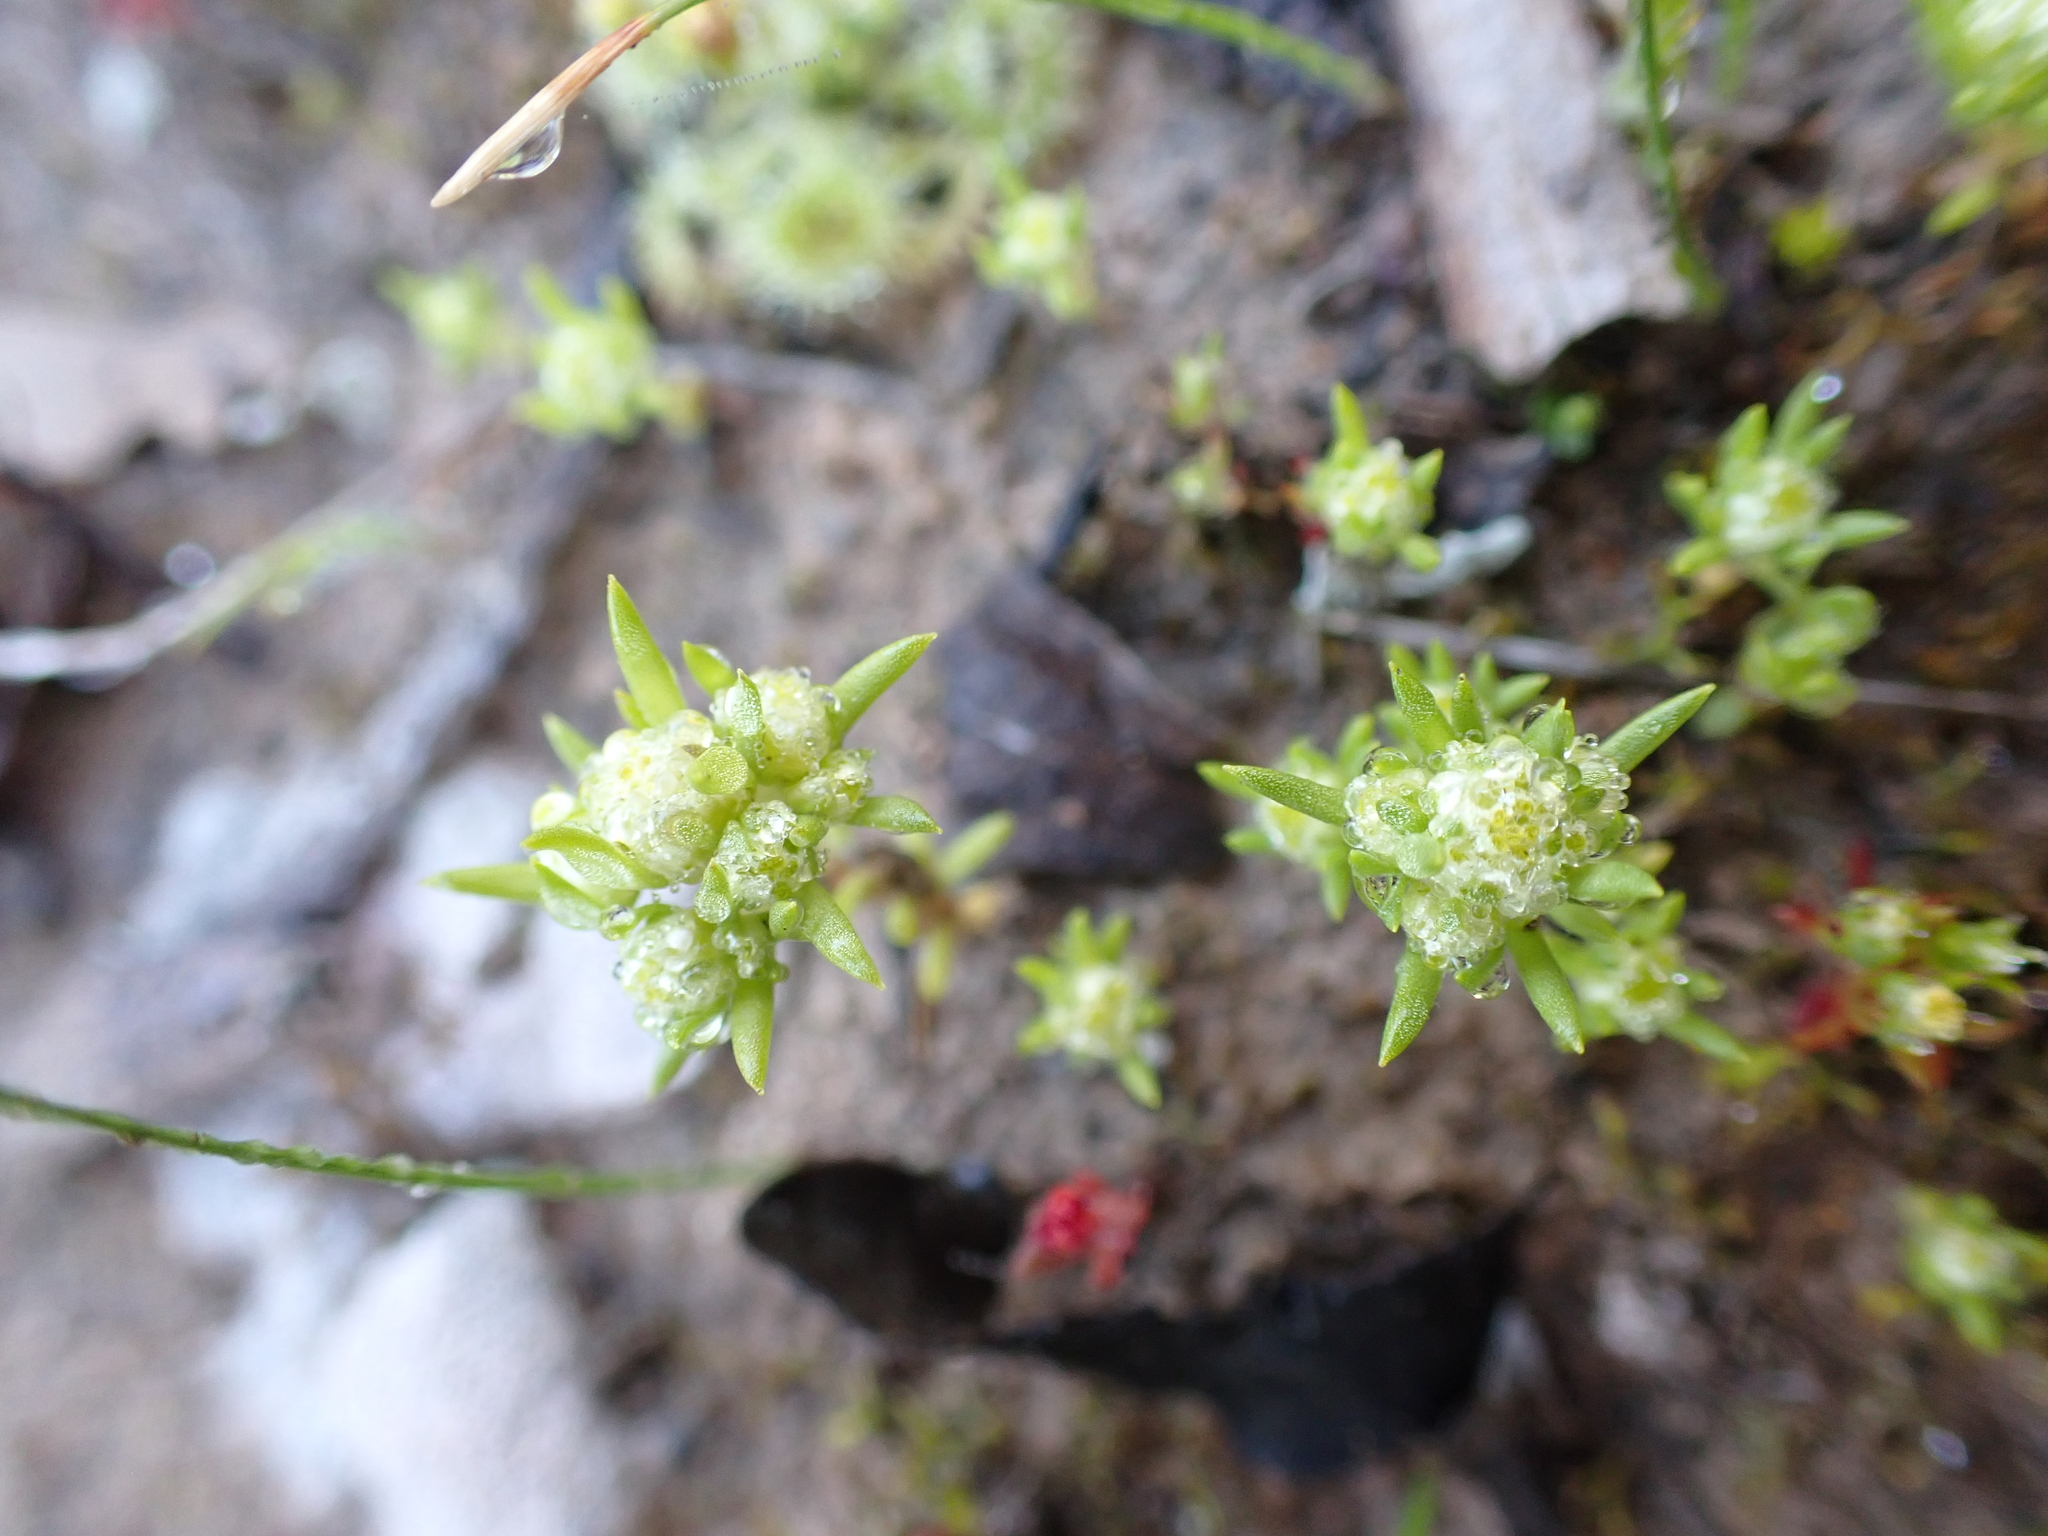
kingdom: Plantae
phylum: Tracheophyta
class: Magnoliopsida
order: Asterales
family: Asteraceae
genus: Siloxerus
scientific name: Siloxerus multiflorus
